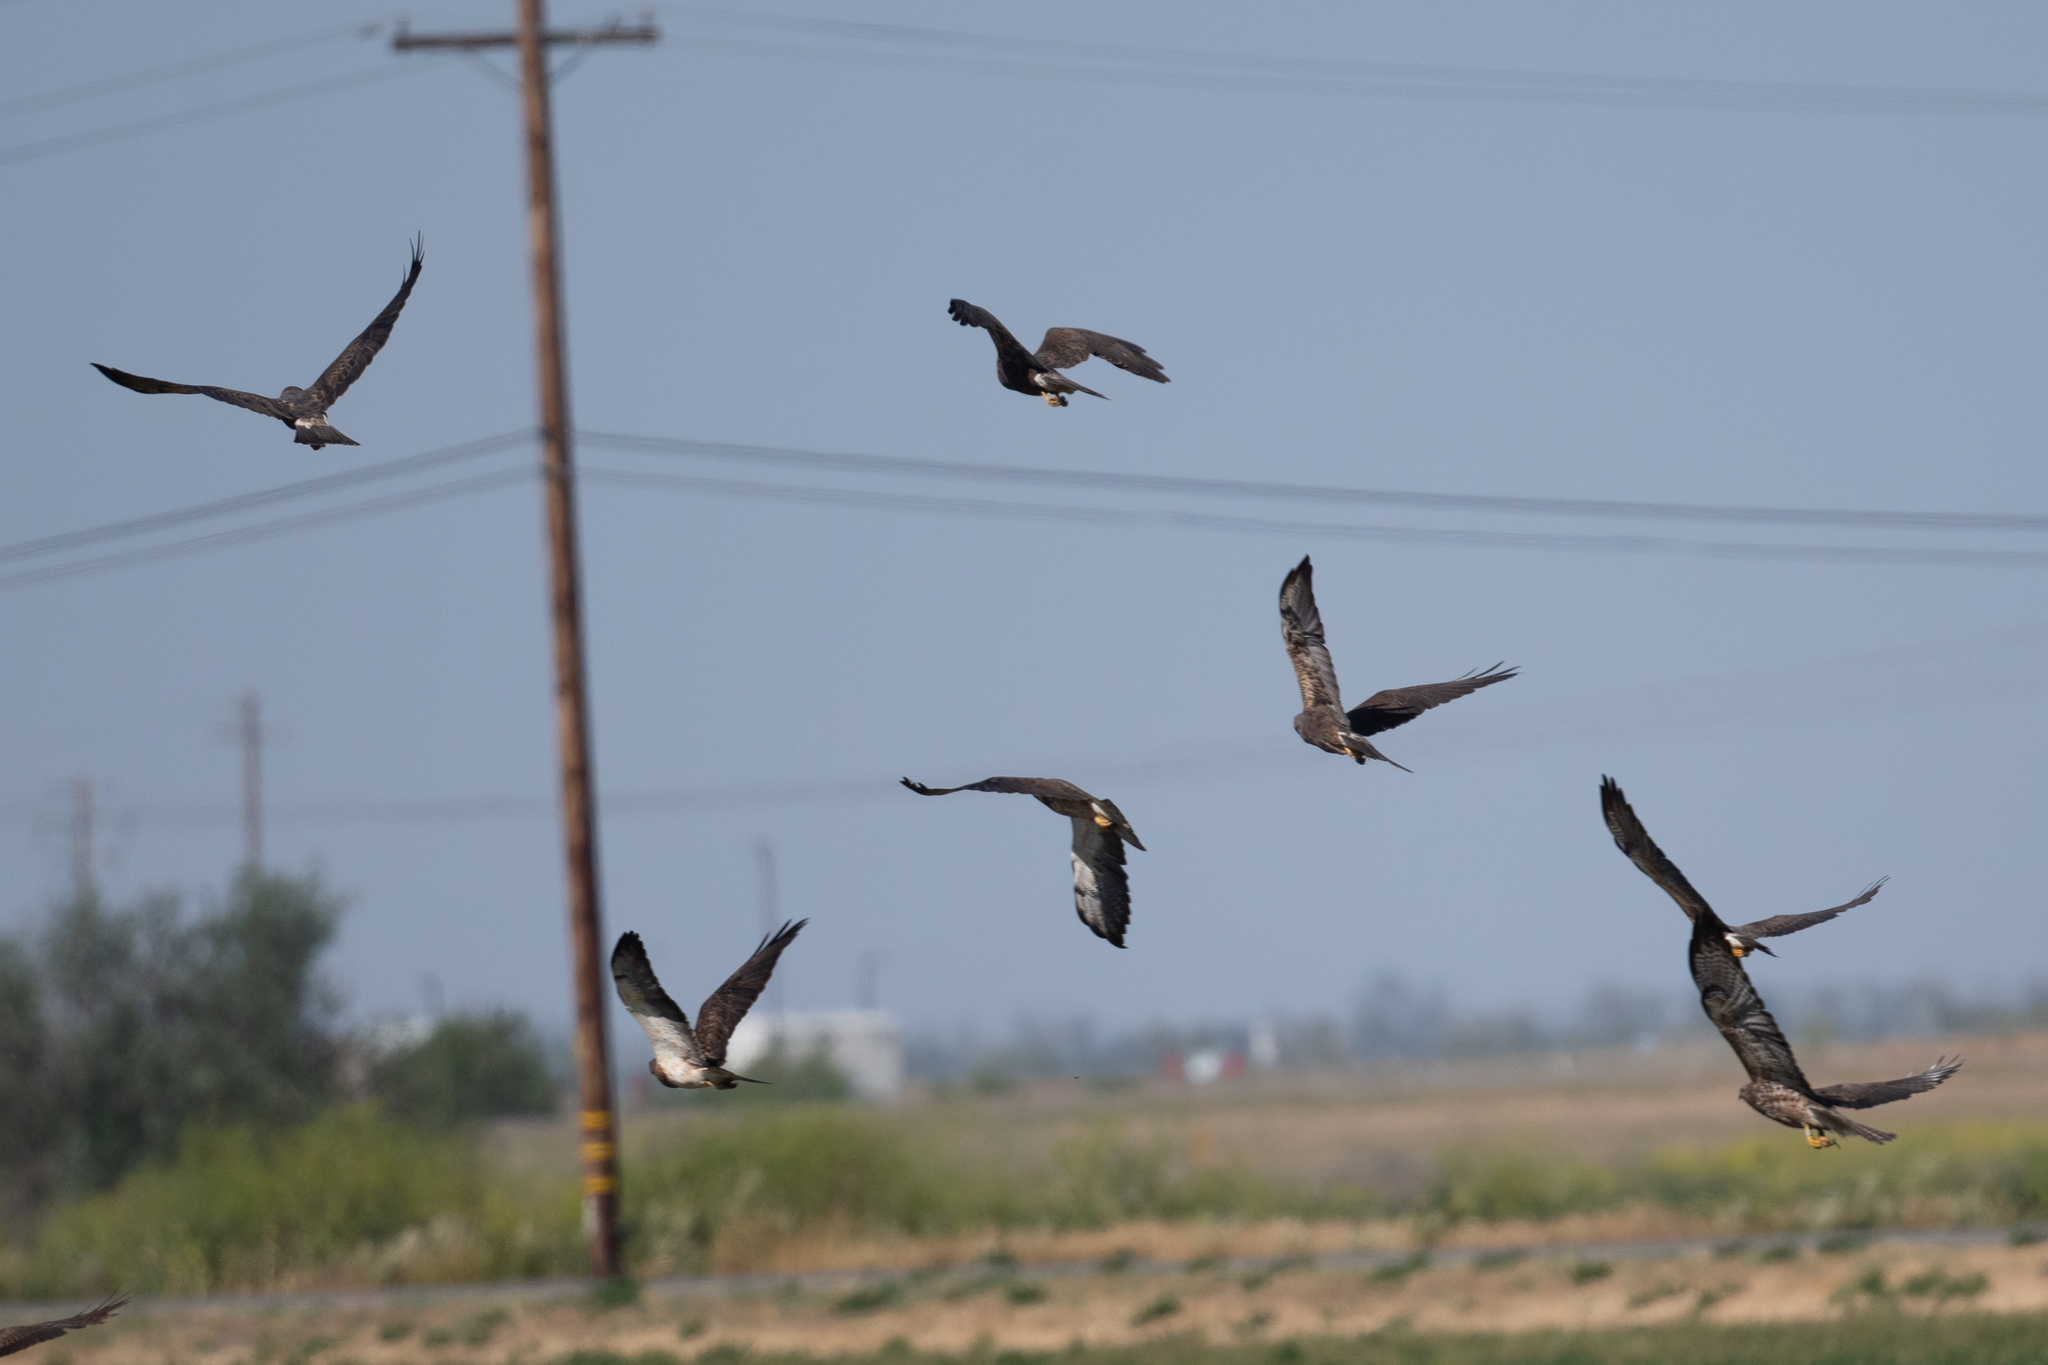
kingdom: Animalia
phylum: Chordata
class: Aves
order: Accipitriformes
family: Accipitridae
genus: Buteo
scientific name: Buteo swainsoni
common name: Swainson's hawk
